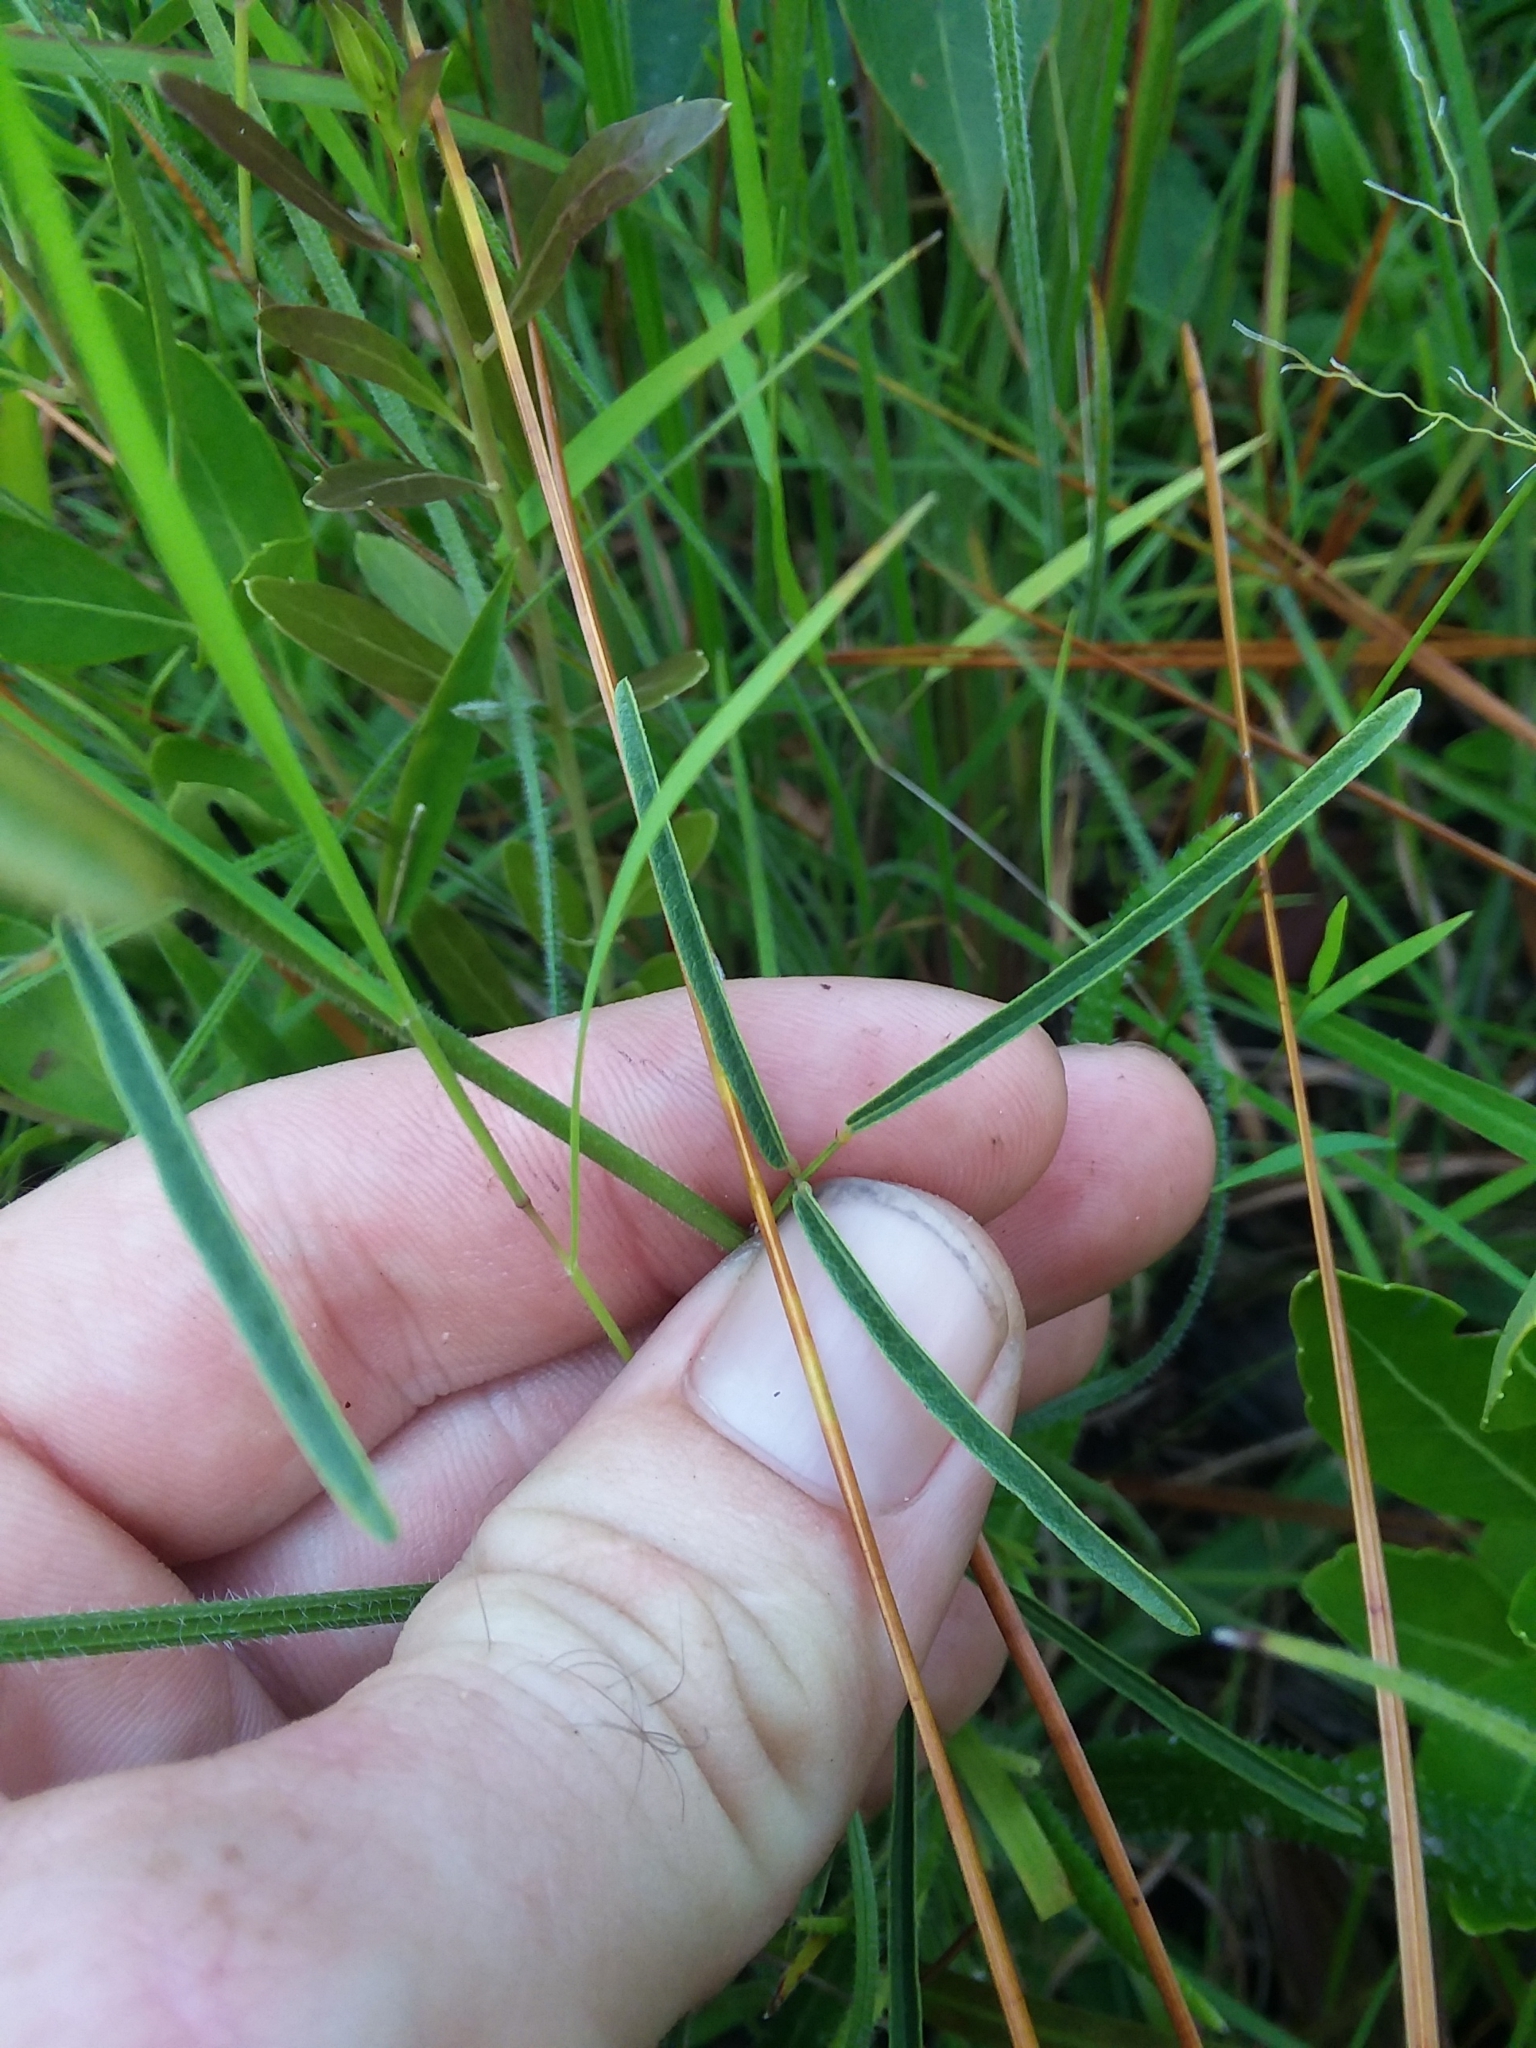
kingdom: Plantae
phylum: Tracheophyta
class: Magnoliopsida
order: Fabales
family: Fabaceae
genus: Desmodium
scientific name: Desmodium tenuifolium
